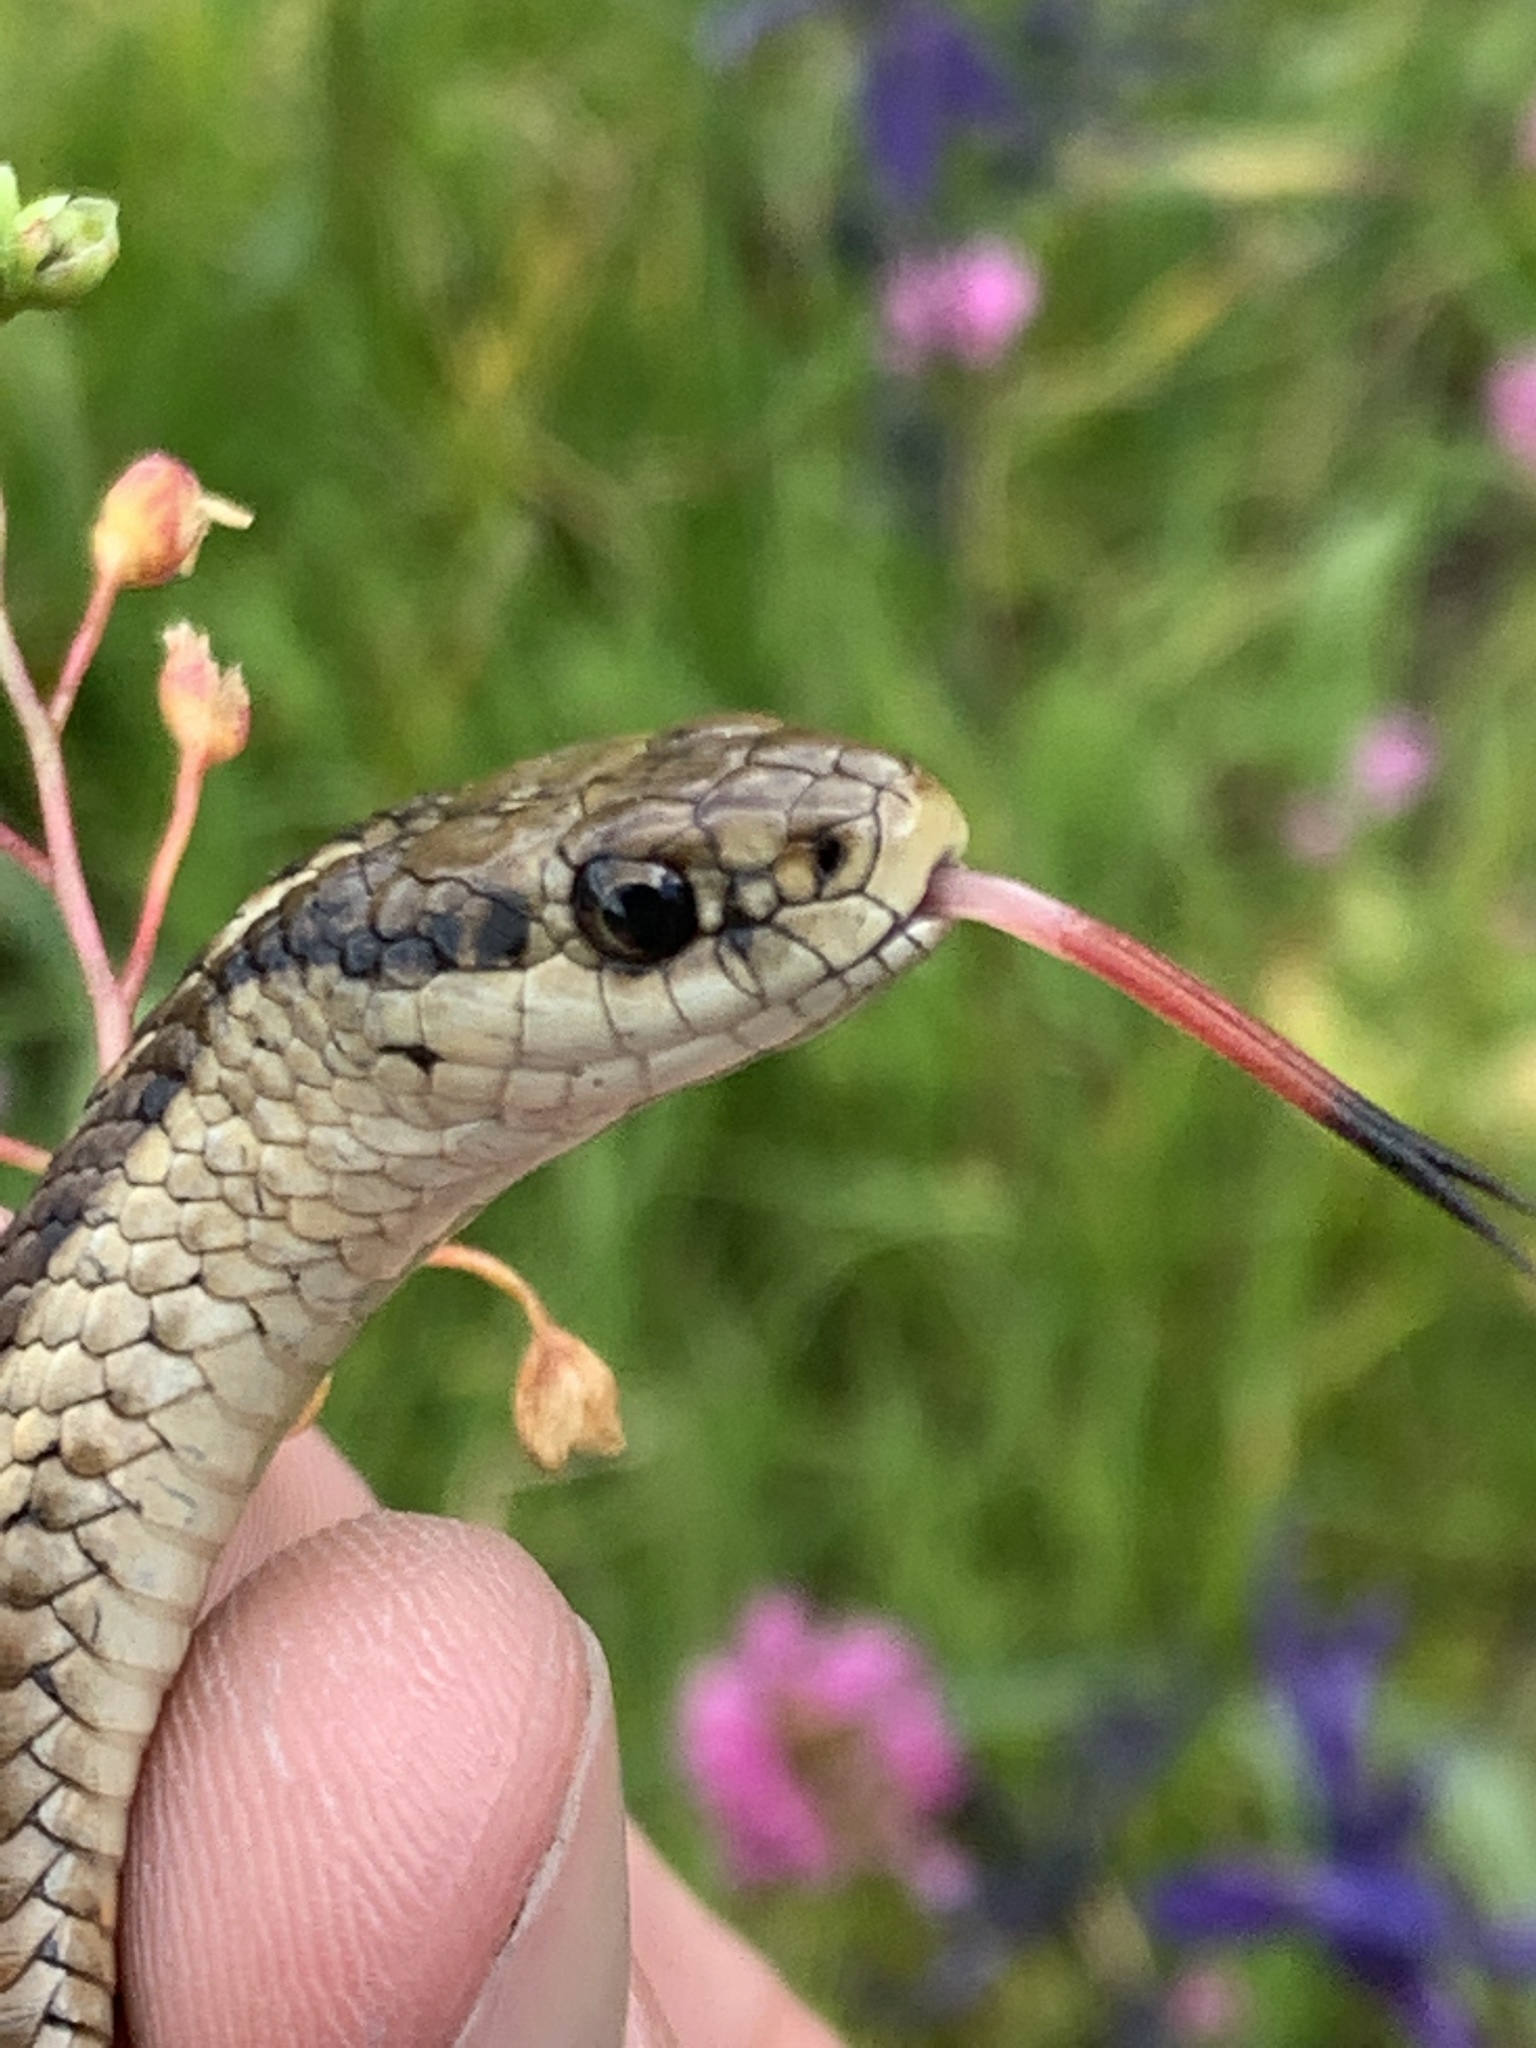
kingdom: Animalia
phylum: Chordata
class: Squamata
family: Colubridae
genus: Thamnophis
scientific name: Thamnophis ordinoides
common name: Northwestern garter snake
